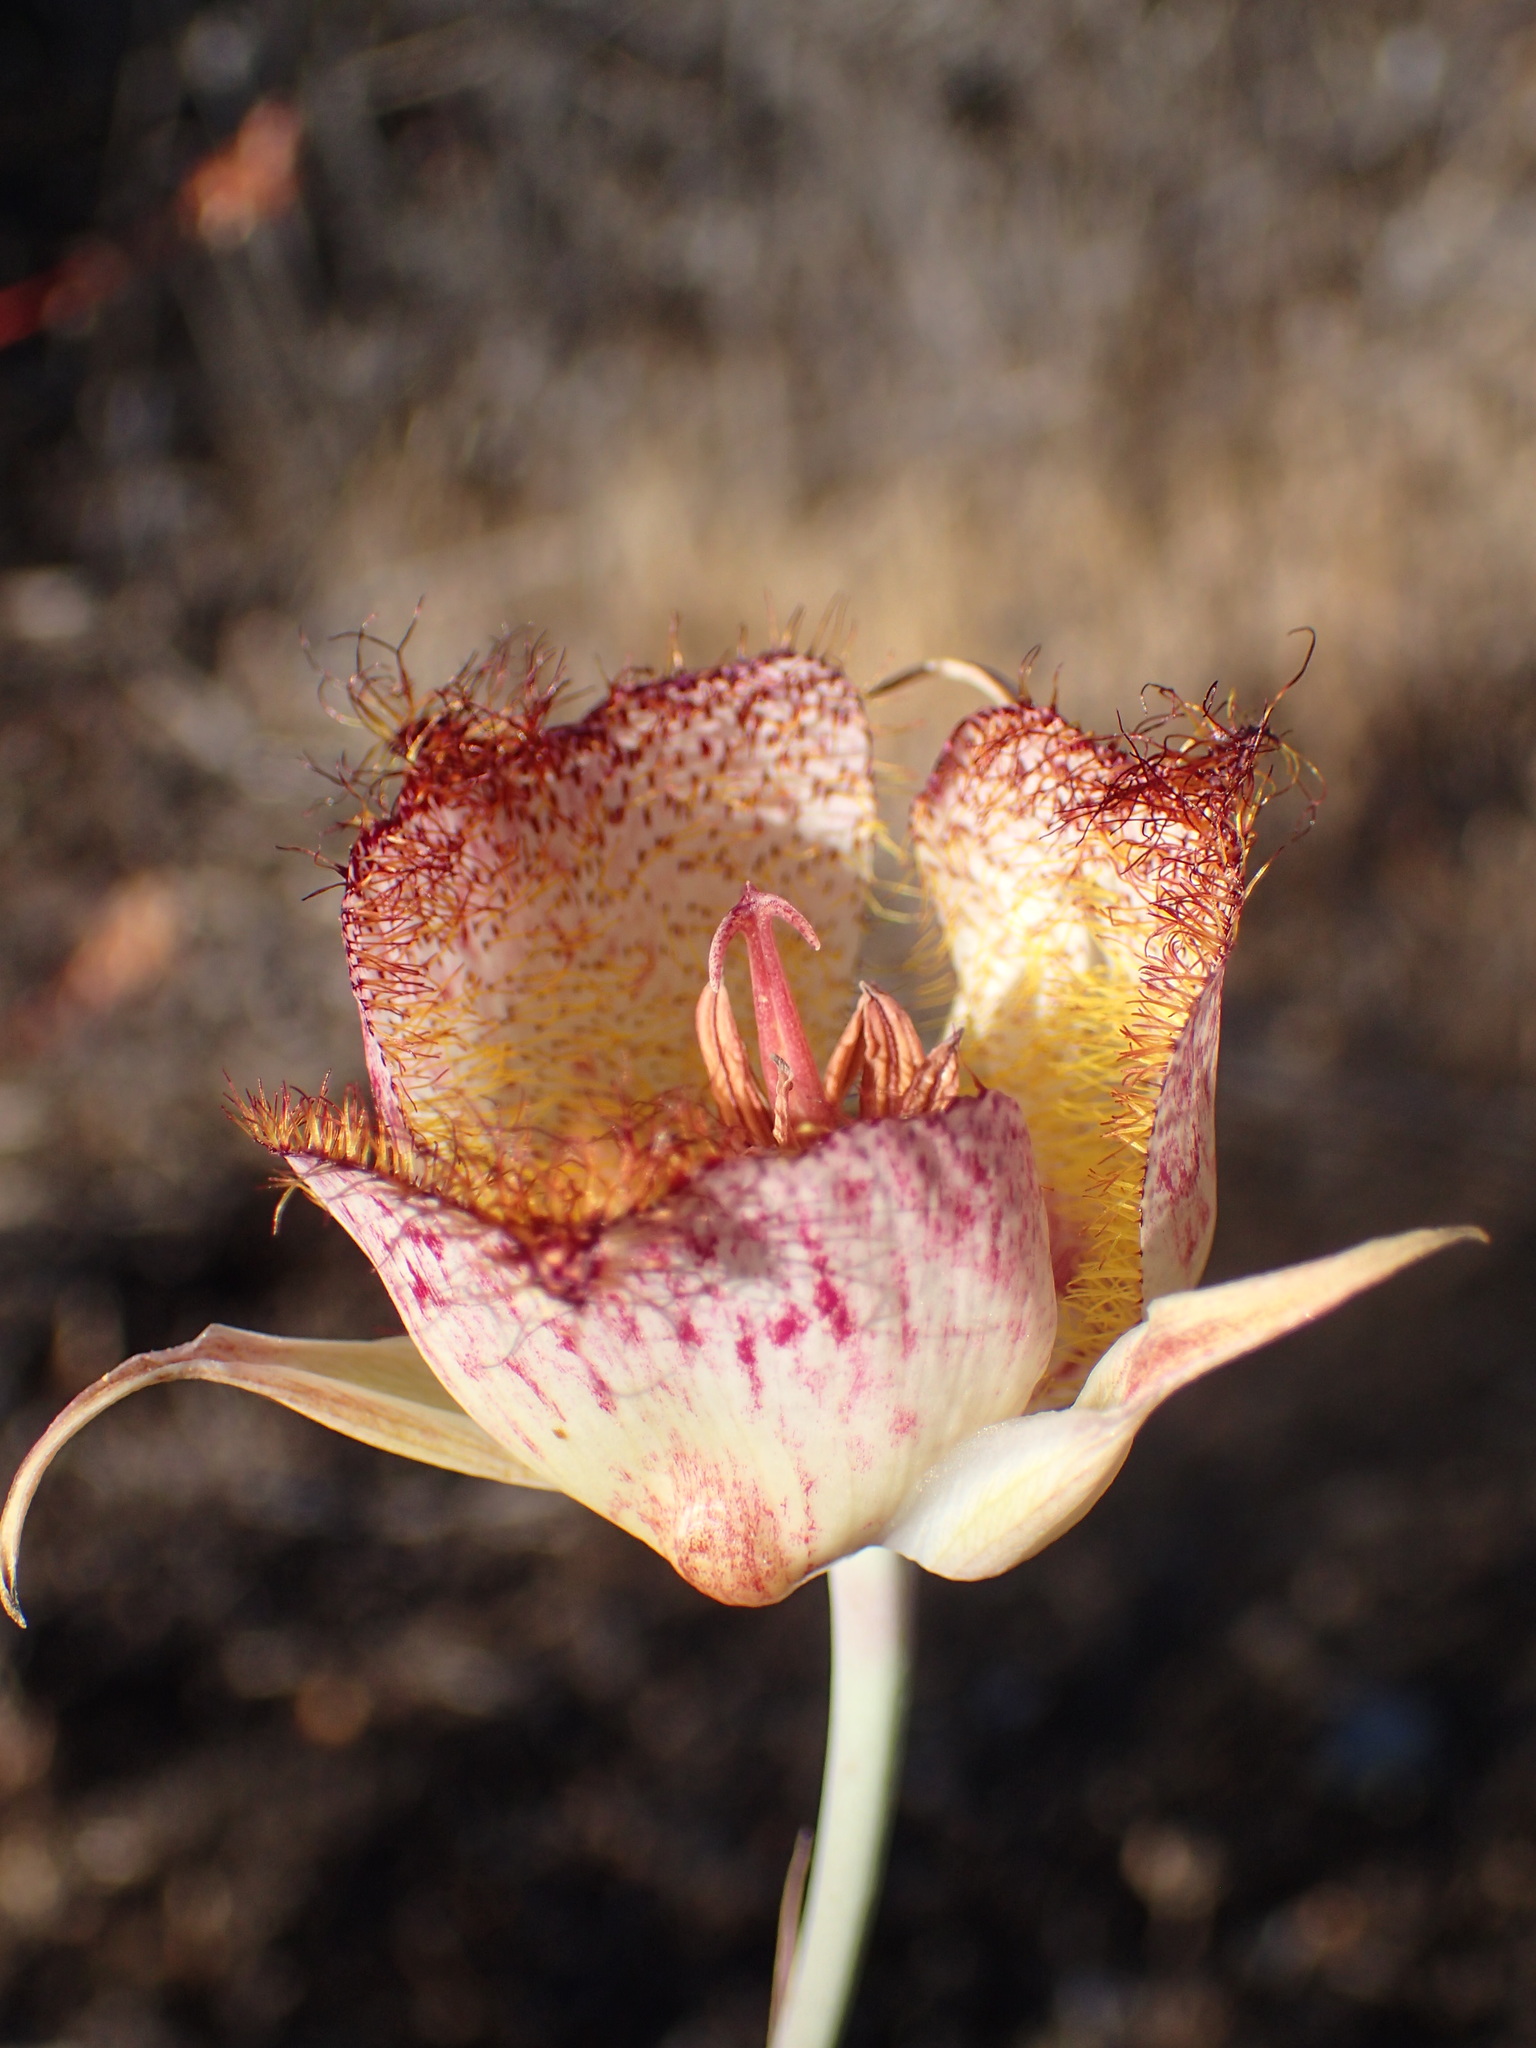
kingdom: Plantae
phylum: Tracheophyta
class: Liliopsida
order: Liliales
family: Liliaceae
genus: Calochortus
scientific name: Calochortus fimbriatus
